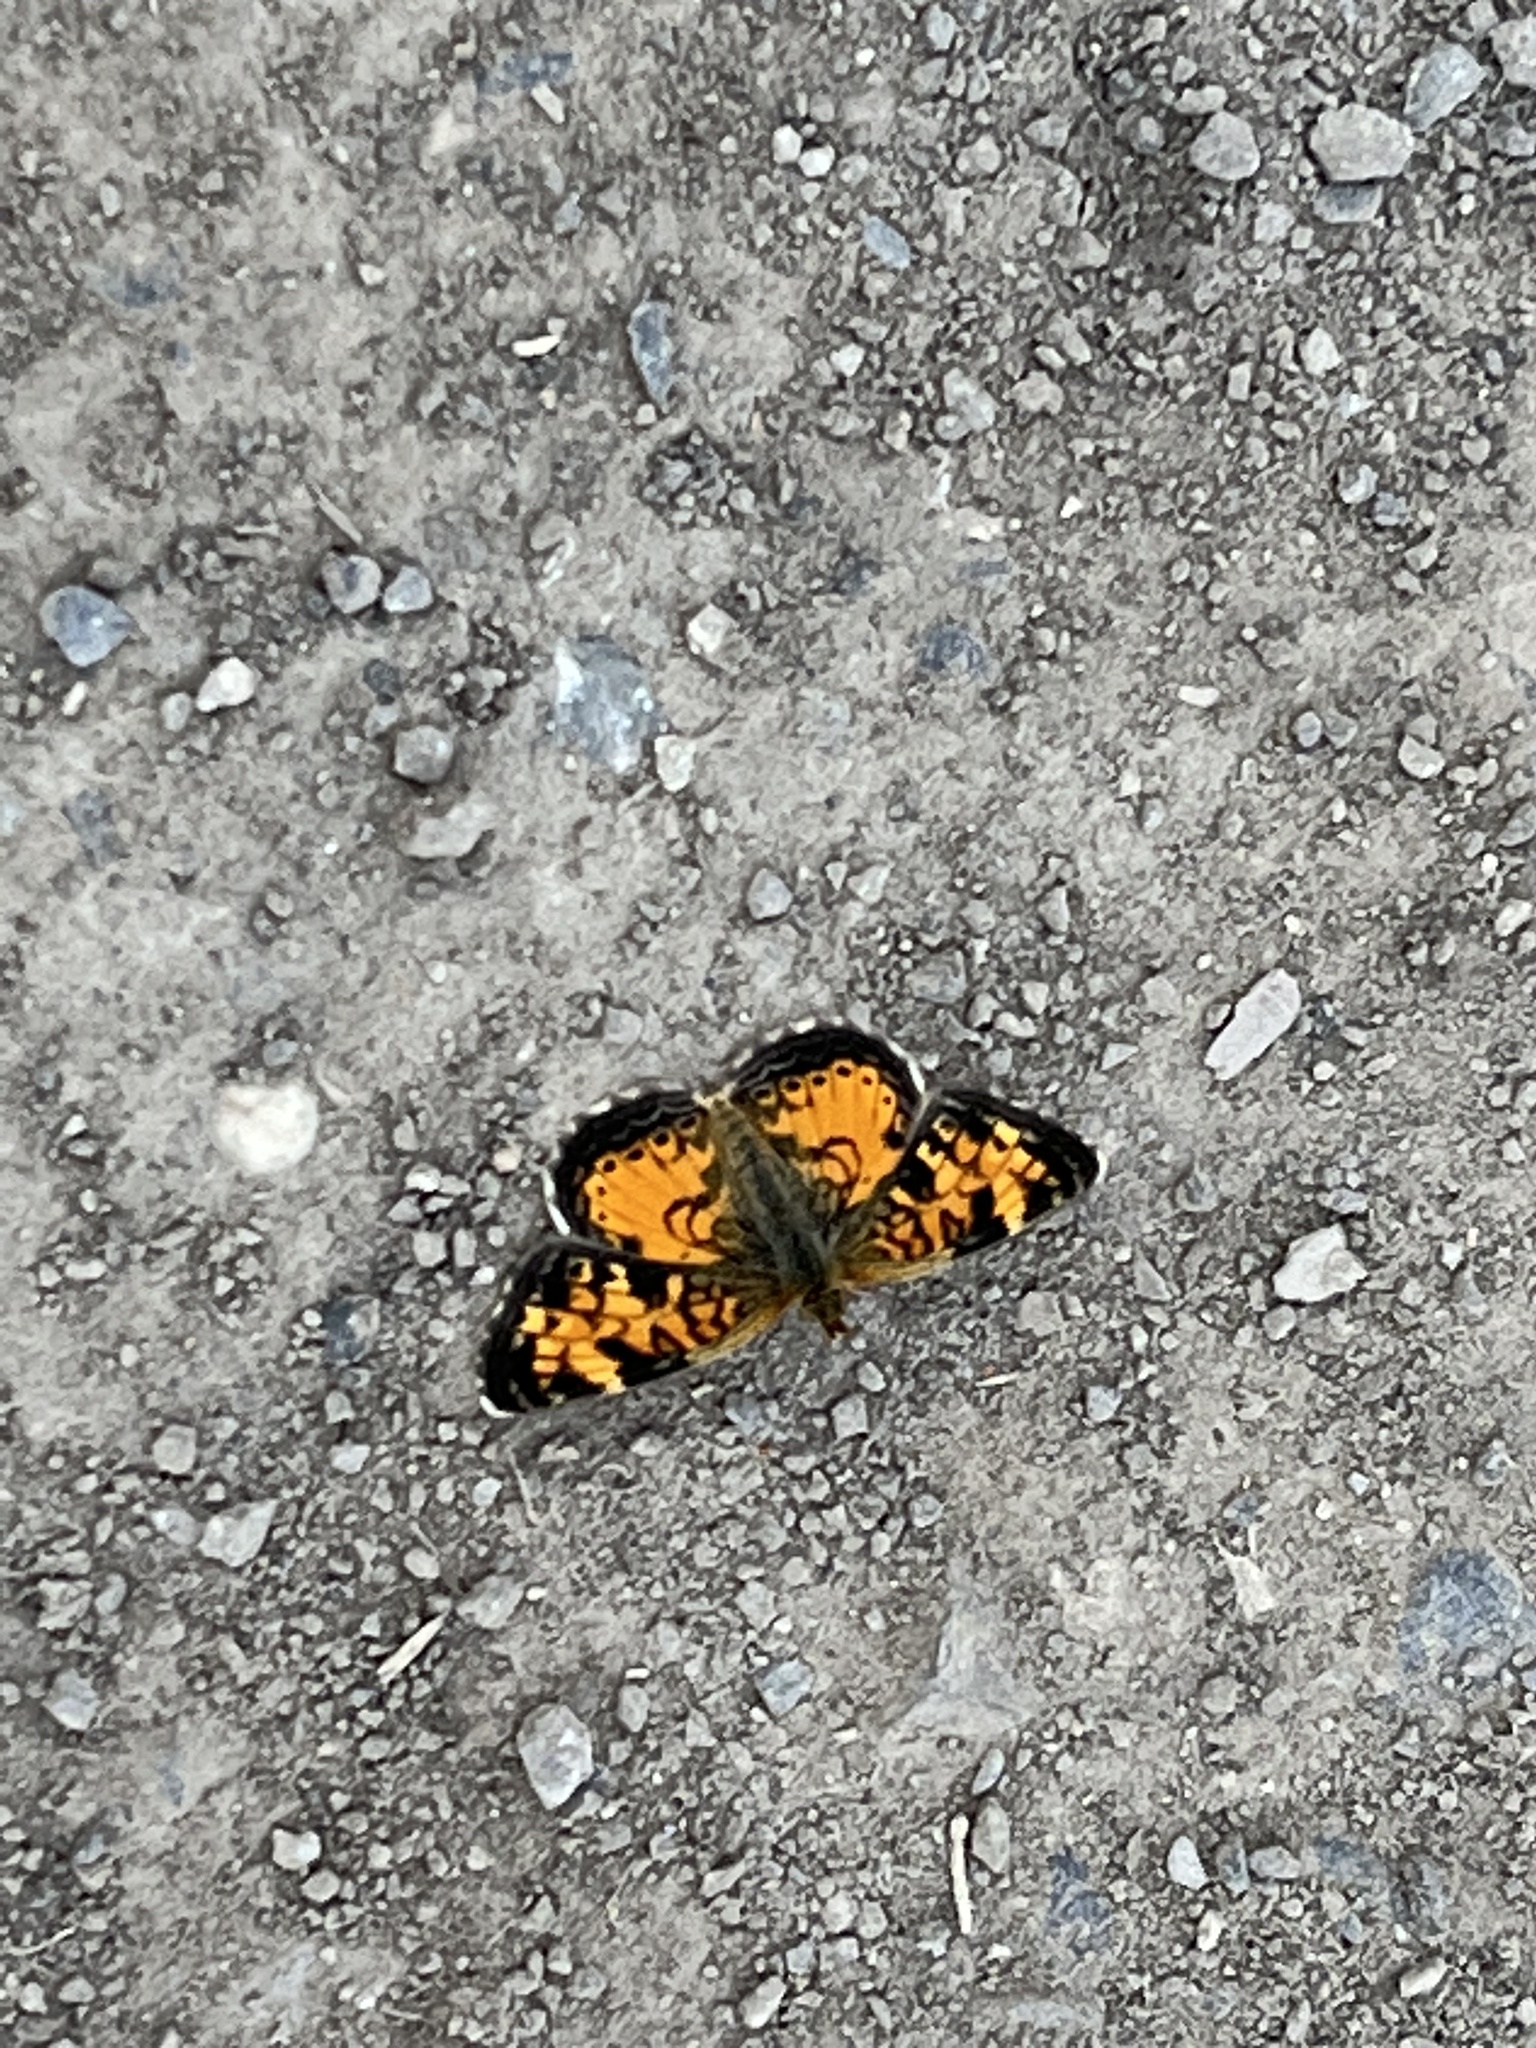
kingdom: Animalia
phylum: Arthropoda
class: Insecta
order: Lepidoptera
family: Nymphalidae
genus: Phyciodes
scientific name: Phyciodes tharos
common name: Pearl crescent
